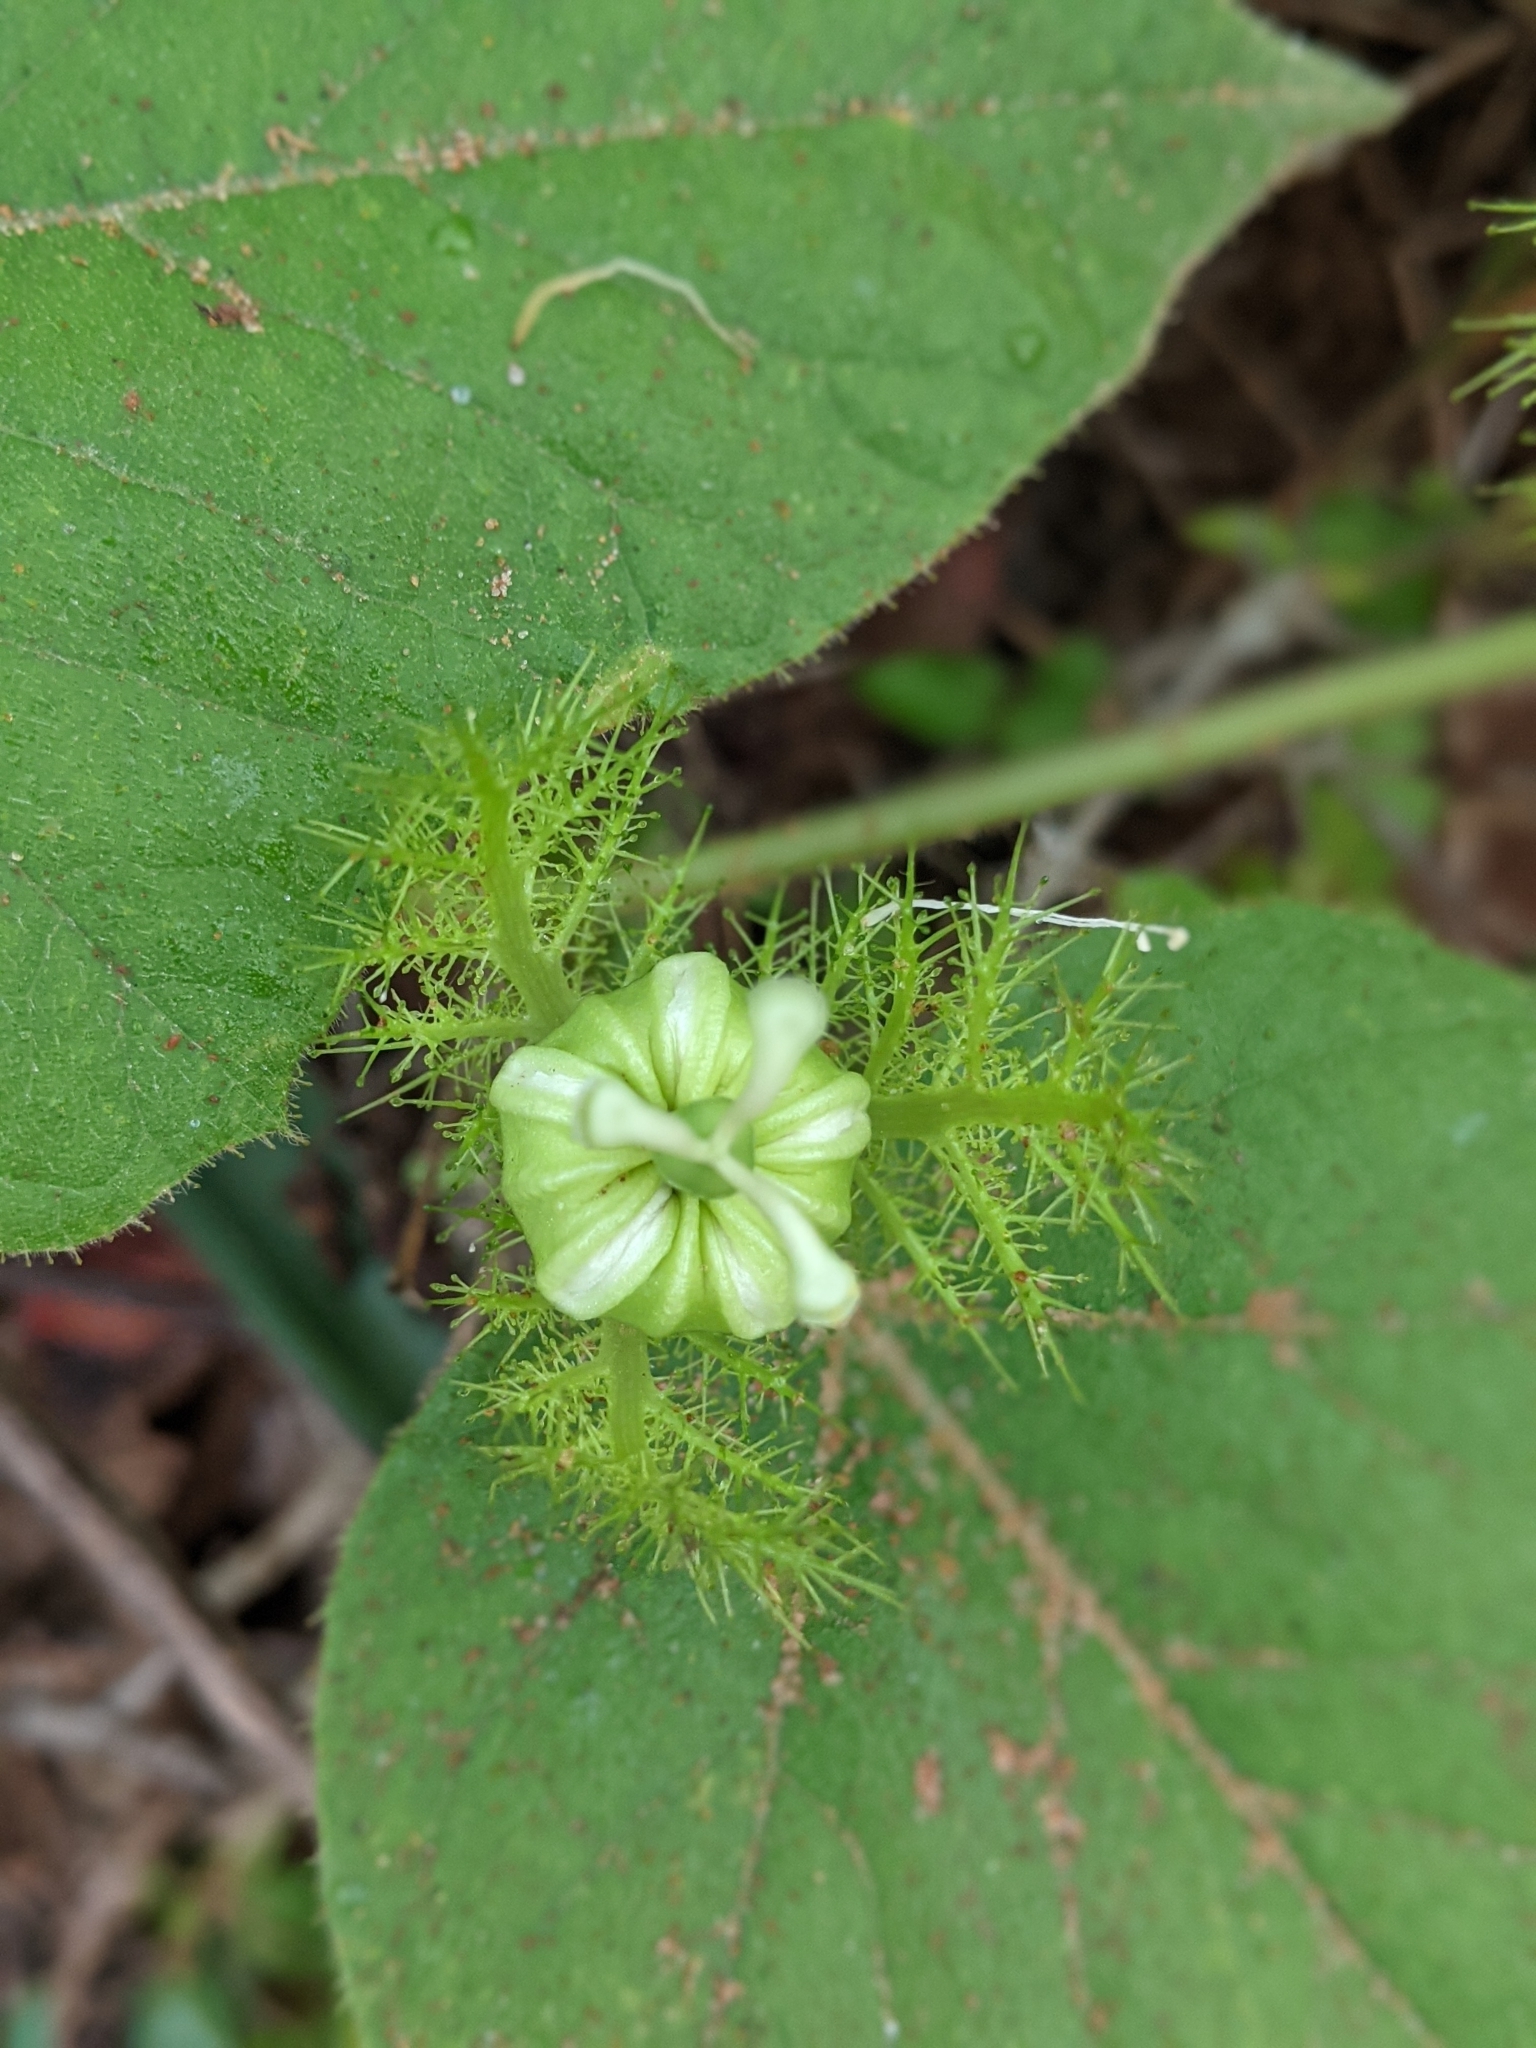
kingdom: Plantae
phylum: Tracheophyta
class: Magnoliopsida
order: Malpighiales
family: Passifloraceae
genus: Passiflora
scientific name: Passiflora vesicaria
